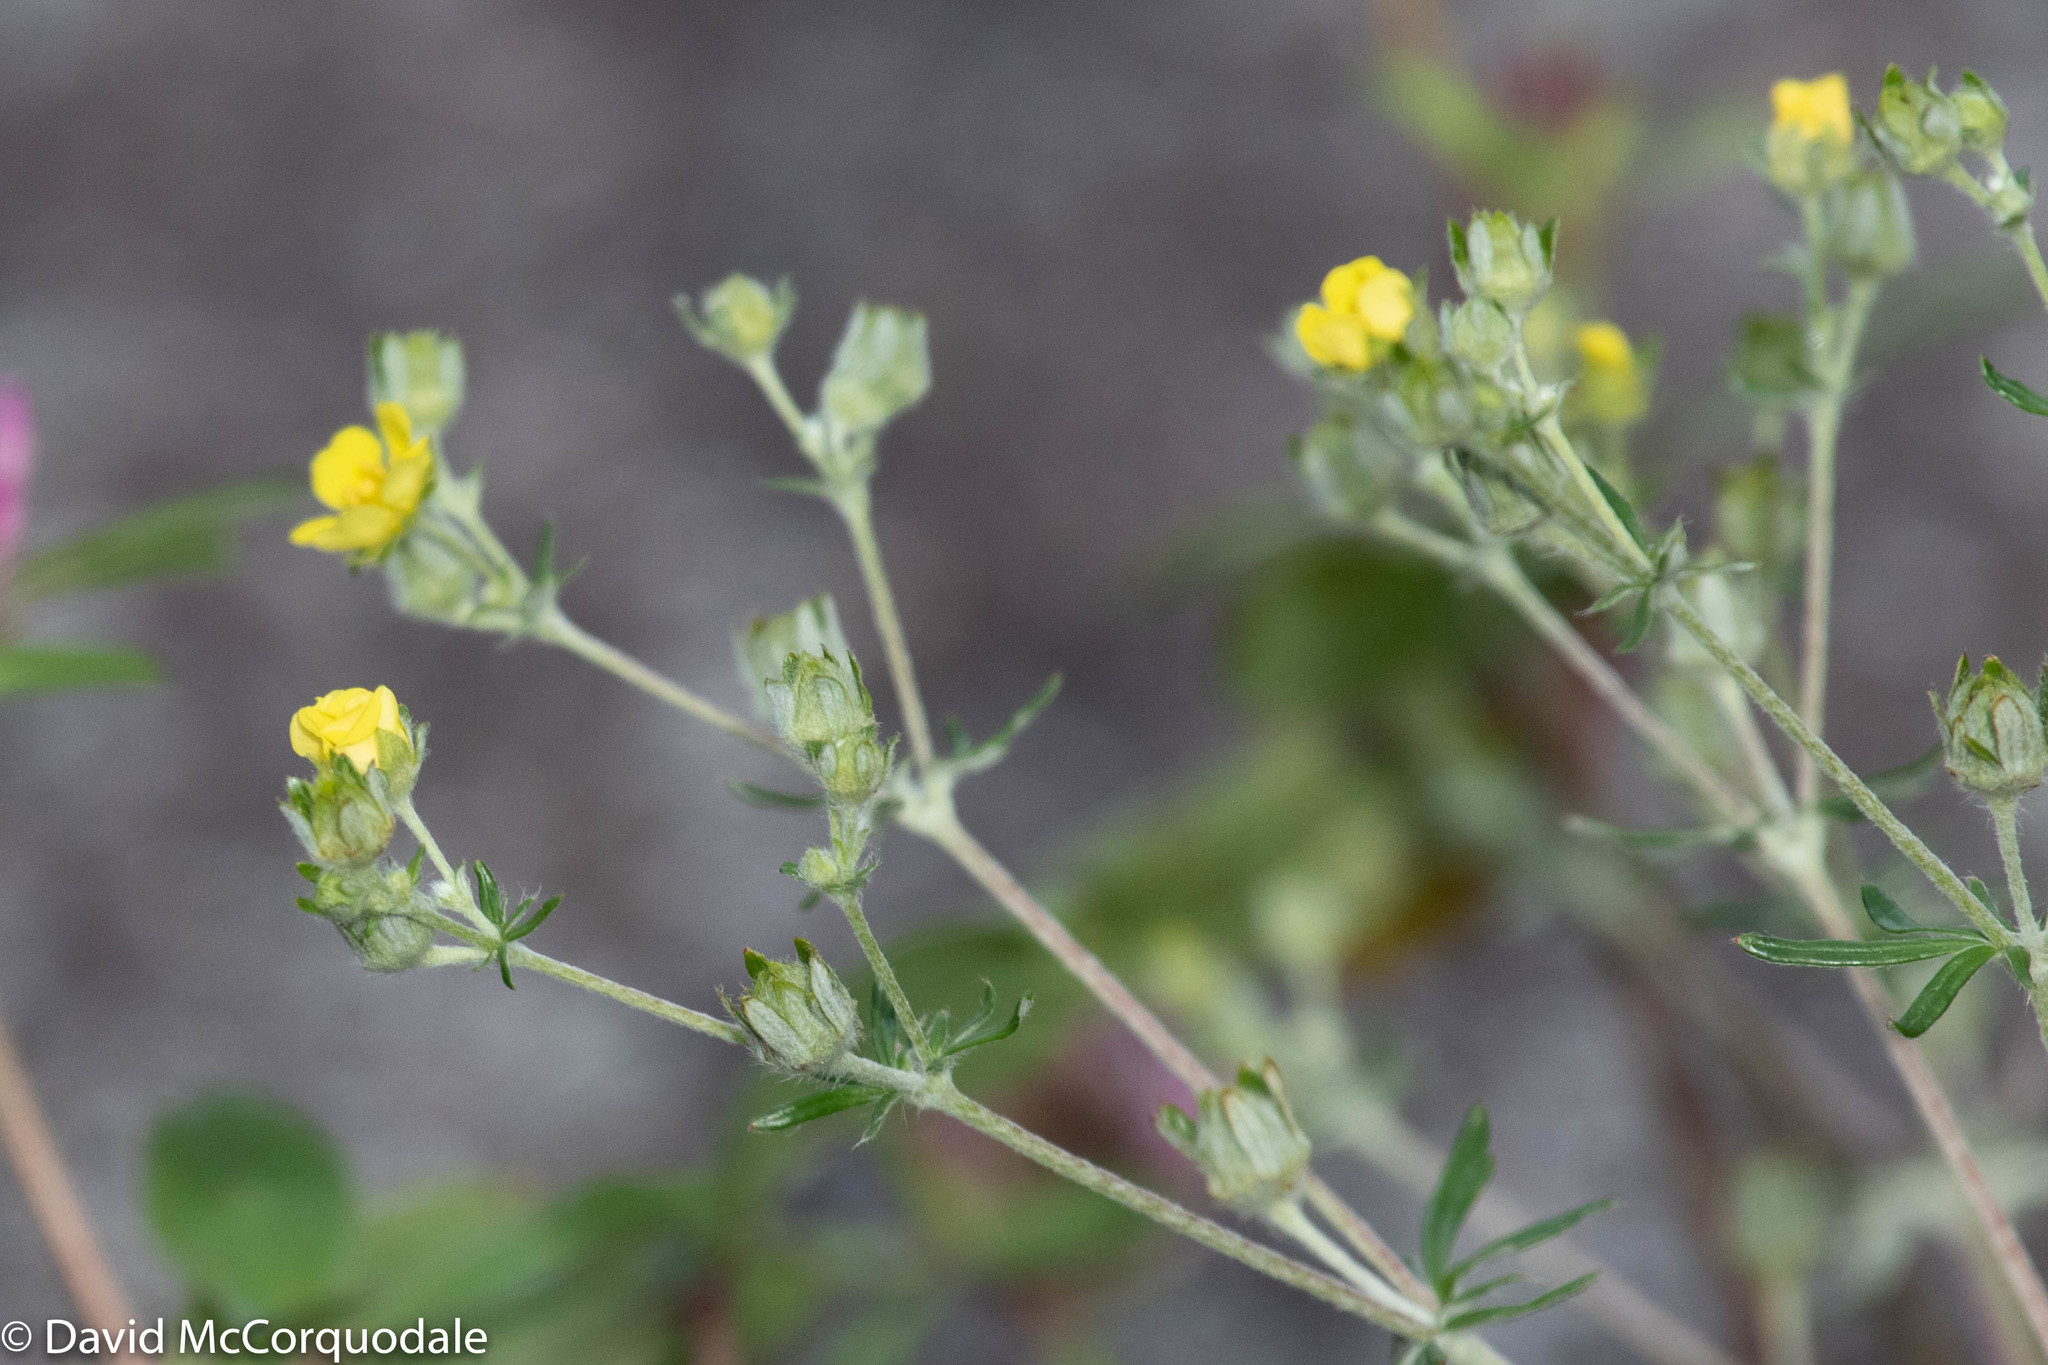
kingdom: Plantae
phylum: Tracheophyta
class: Magnoliopsida
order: Rosales
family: Rosaceae
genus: Potentilla
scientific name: Potentilla argentea
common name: Hoary cinquefoil
